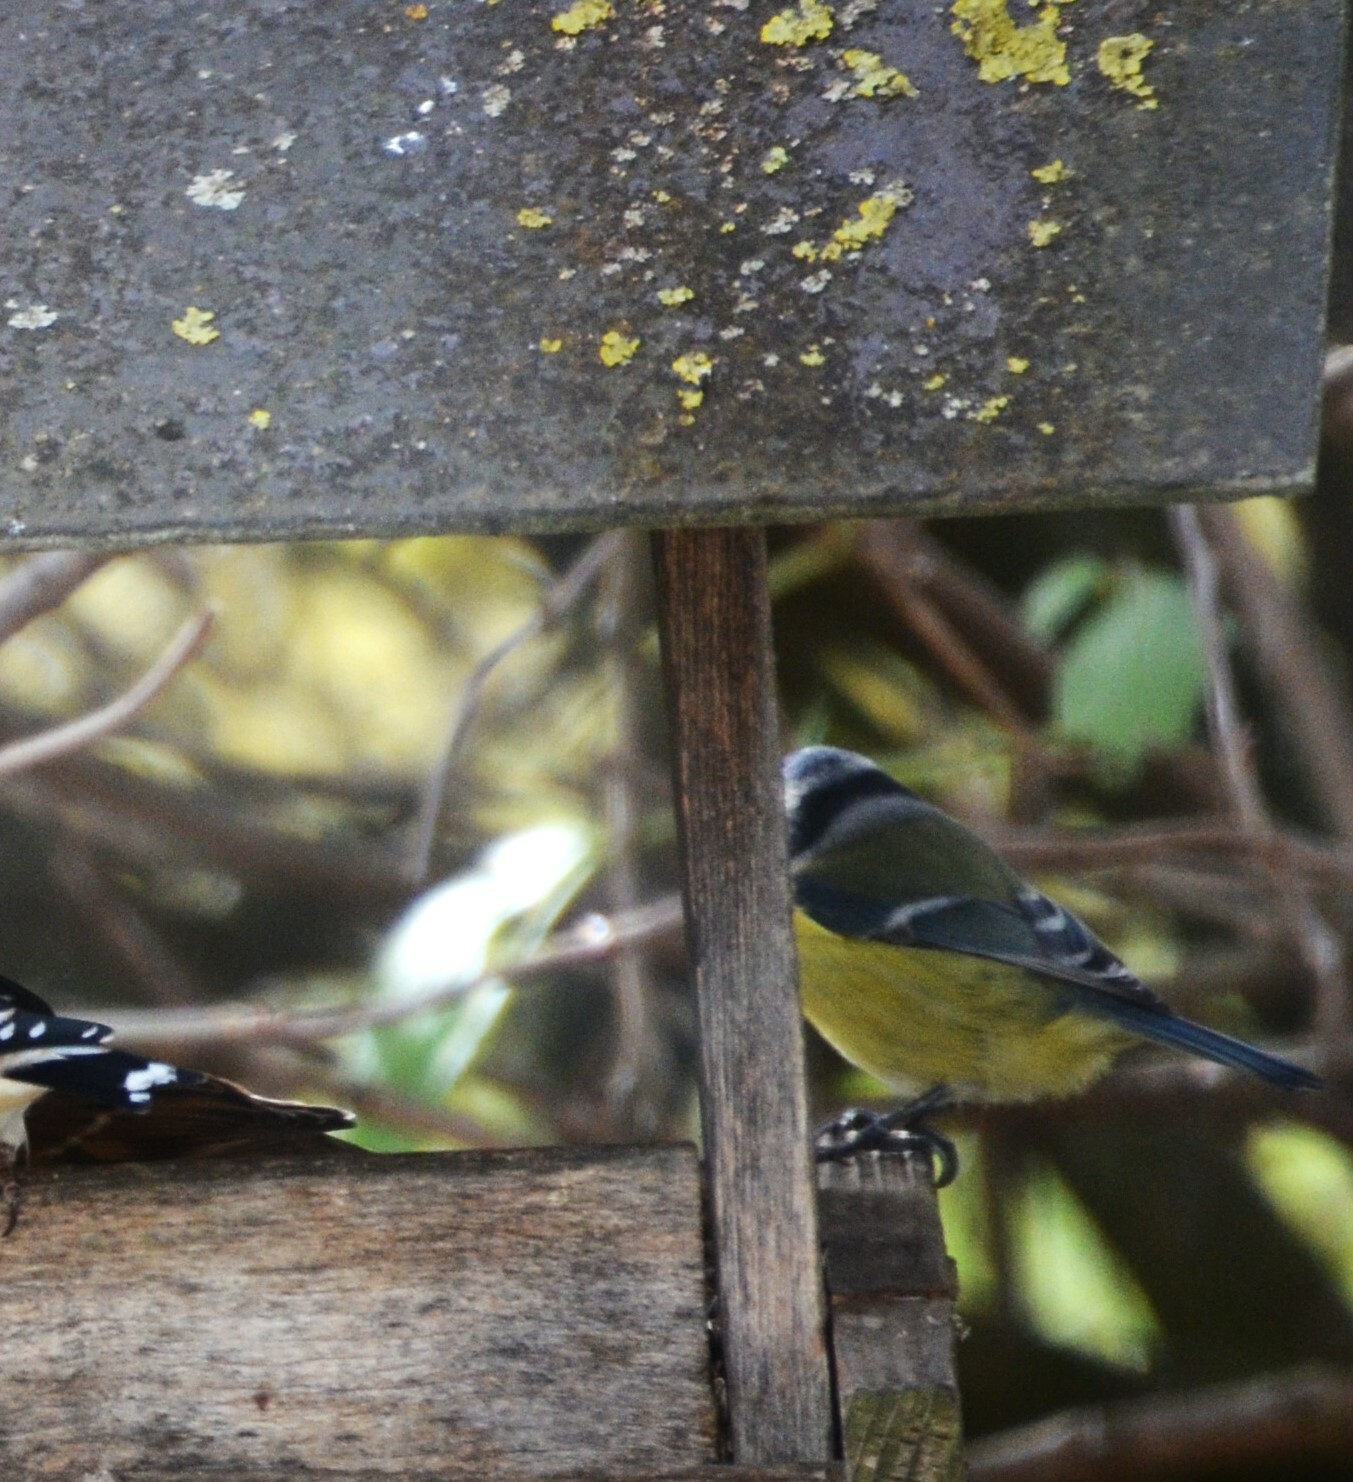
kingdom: Animalia
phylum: Chordata
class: Aves
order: Passeriformes
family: Paridae
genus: Cyanistes
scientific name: Cyanistes caeruleus
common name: Eurasian blue tit
